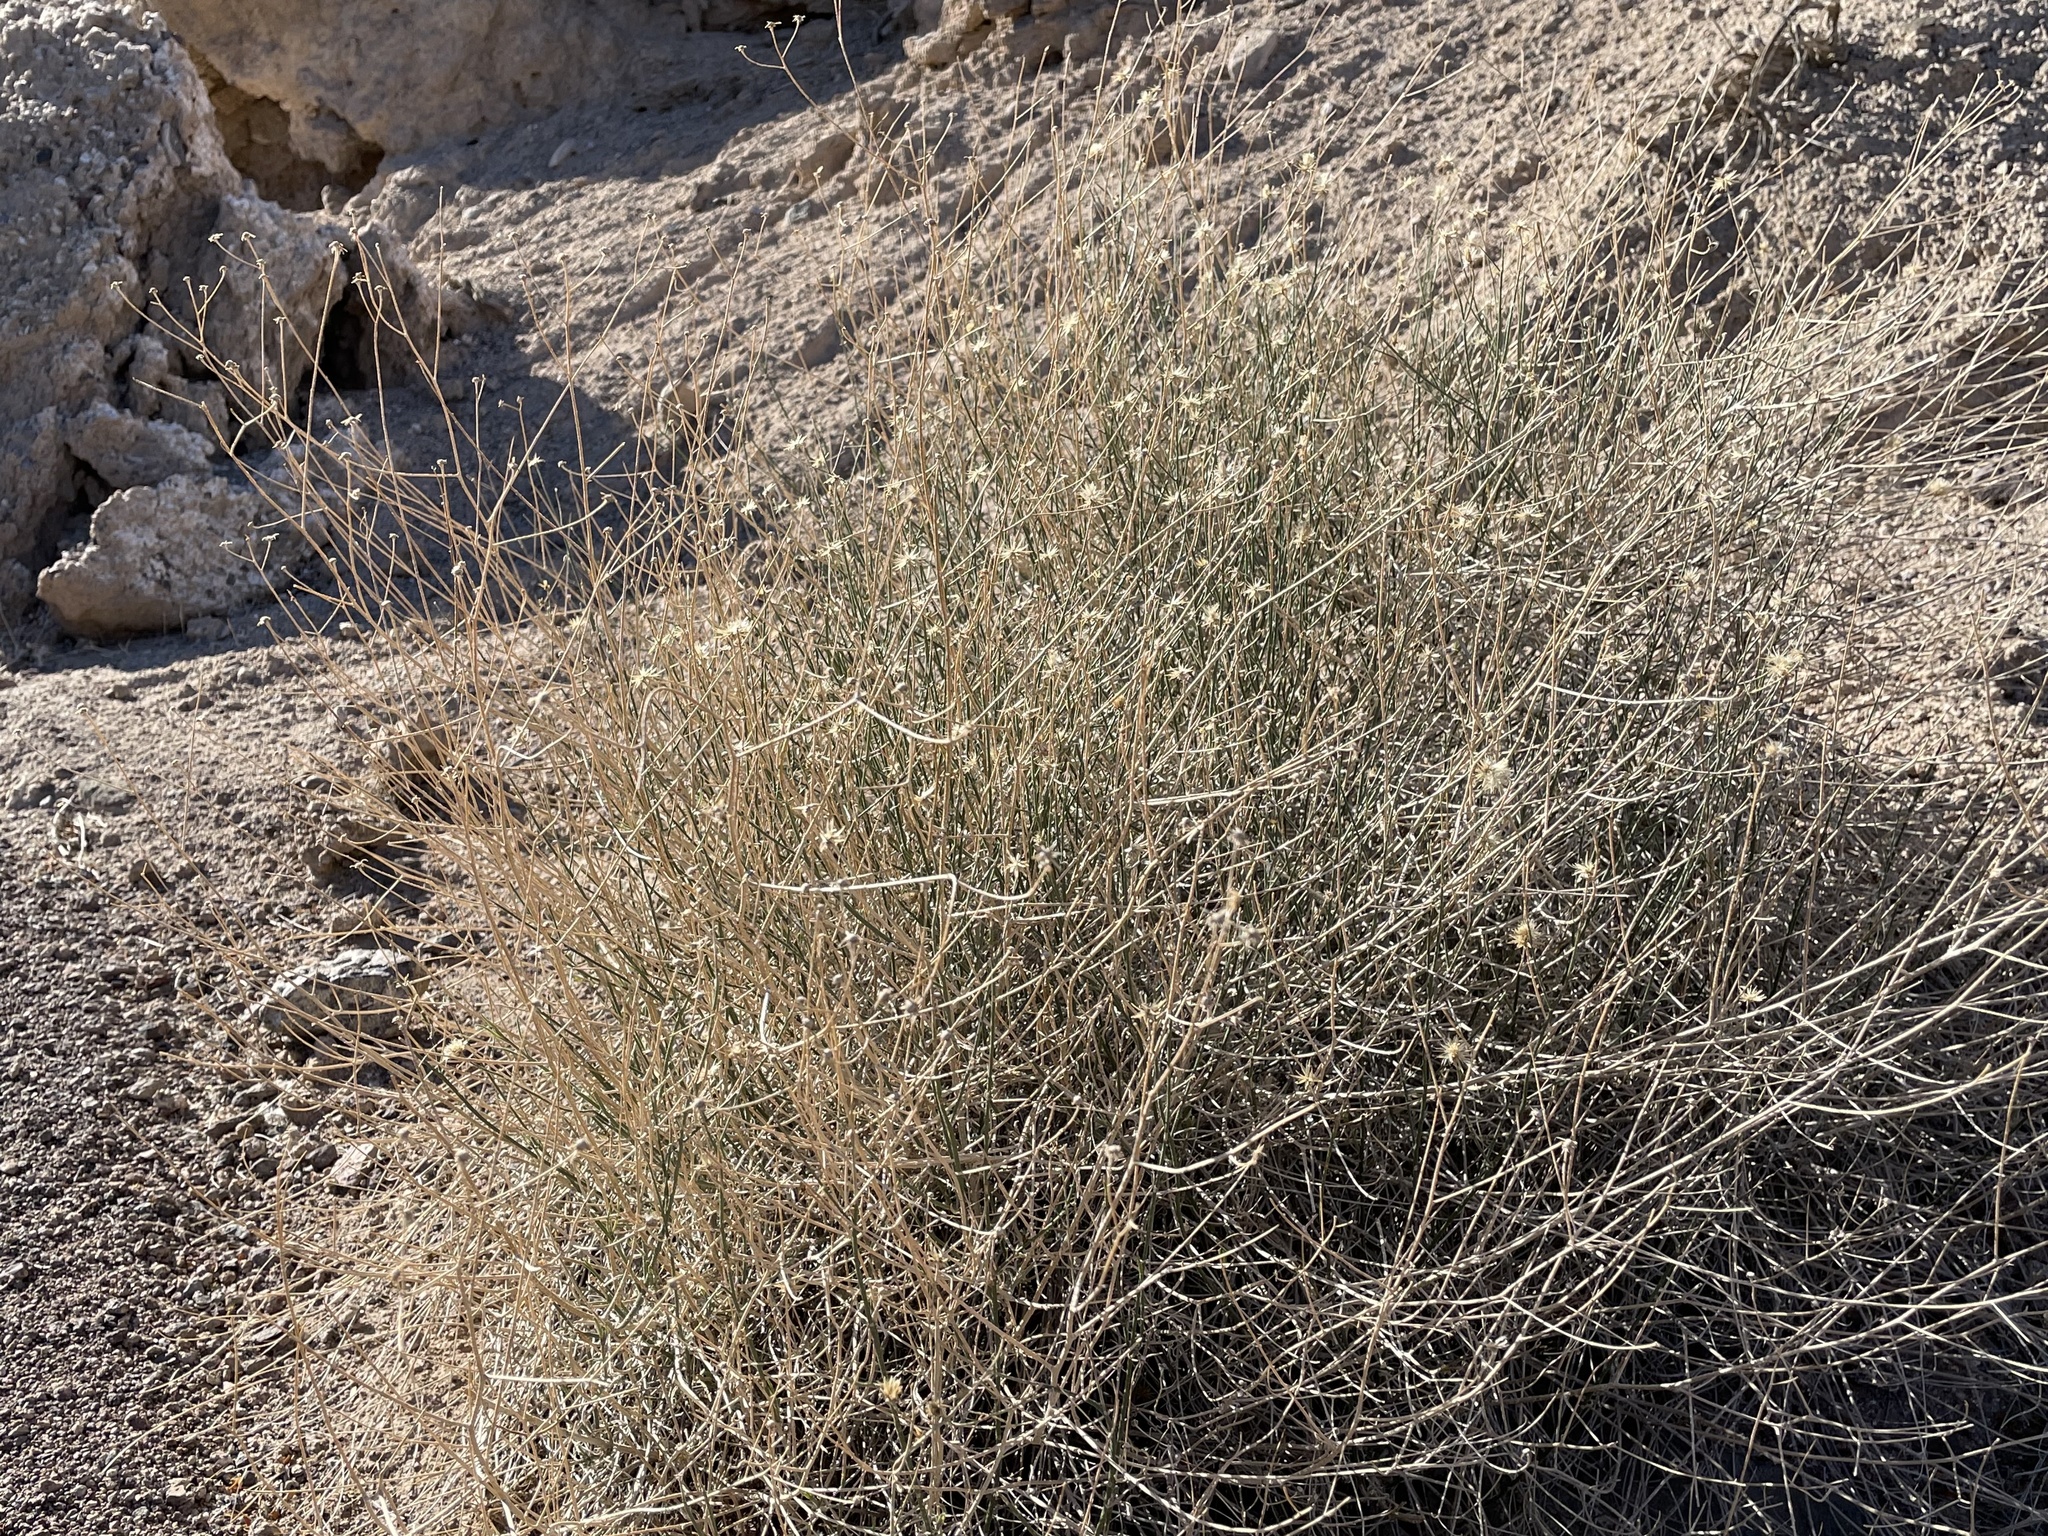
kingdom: Plantae
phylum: Tracheophyta
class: Magnoliopsida
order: Asterales
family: Asteraceae
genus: Bebbia
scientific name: Bebbia juncea
